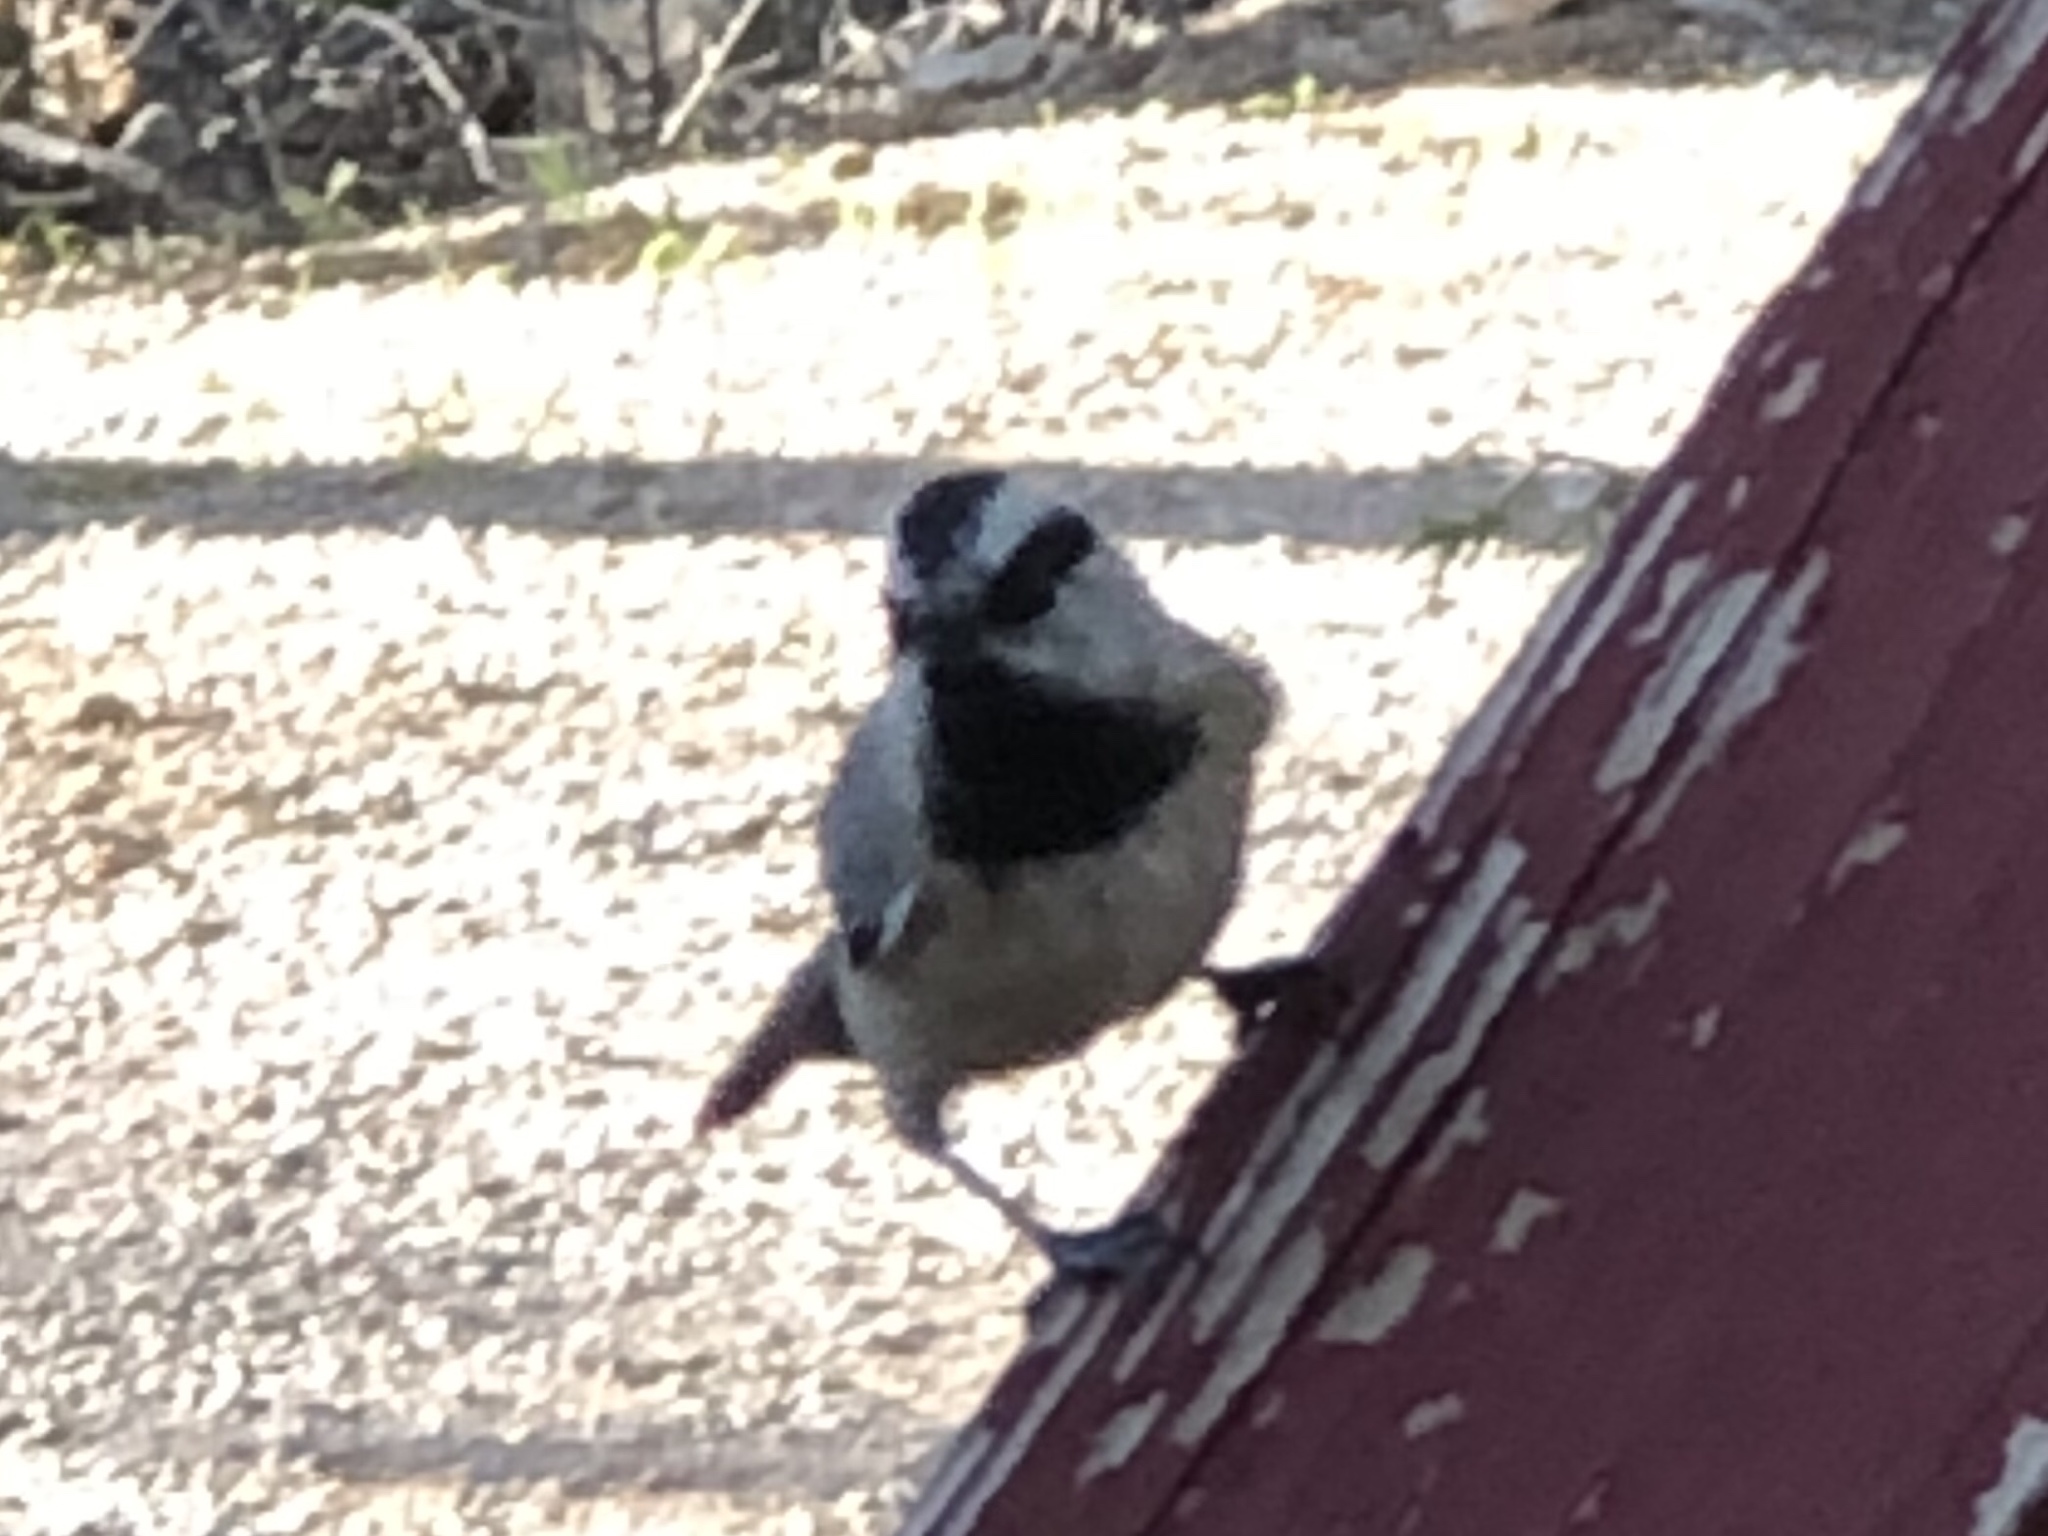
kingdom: Animalia
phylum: Chordata
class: Aves
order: Passeriformes
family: Paridae
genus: Poecile
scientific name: Poecile gambeli
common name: Mountain chickadee
